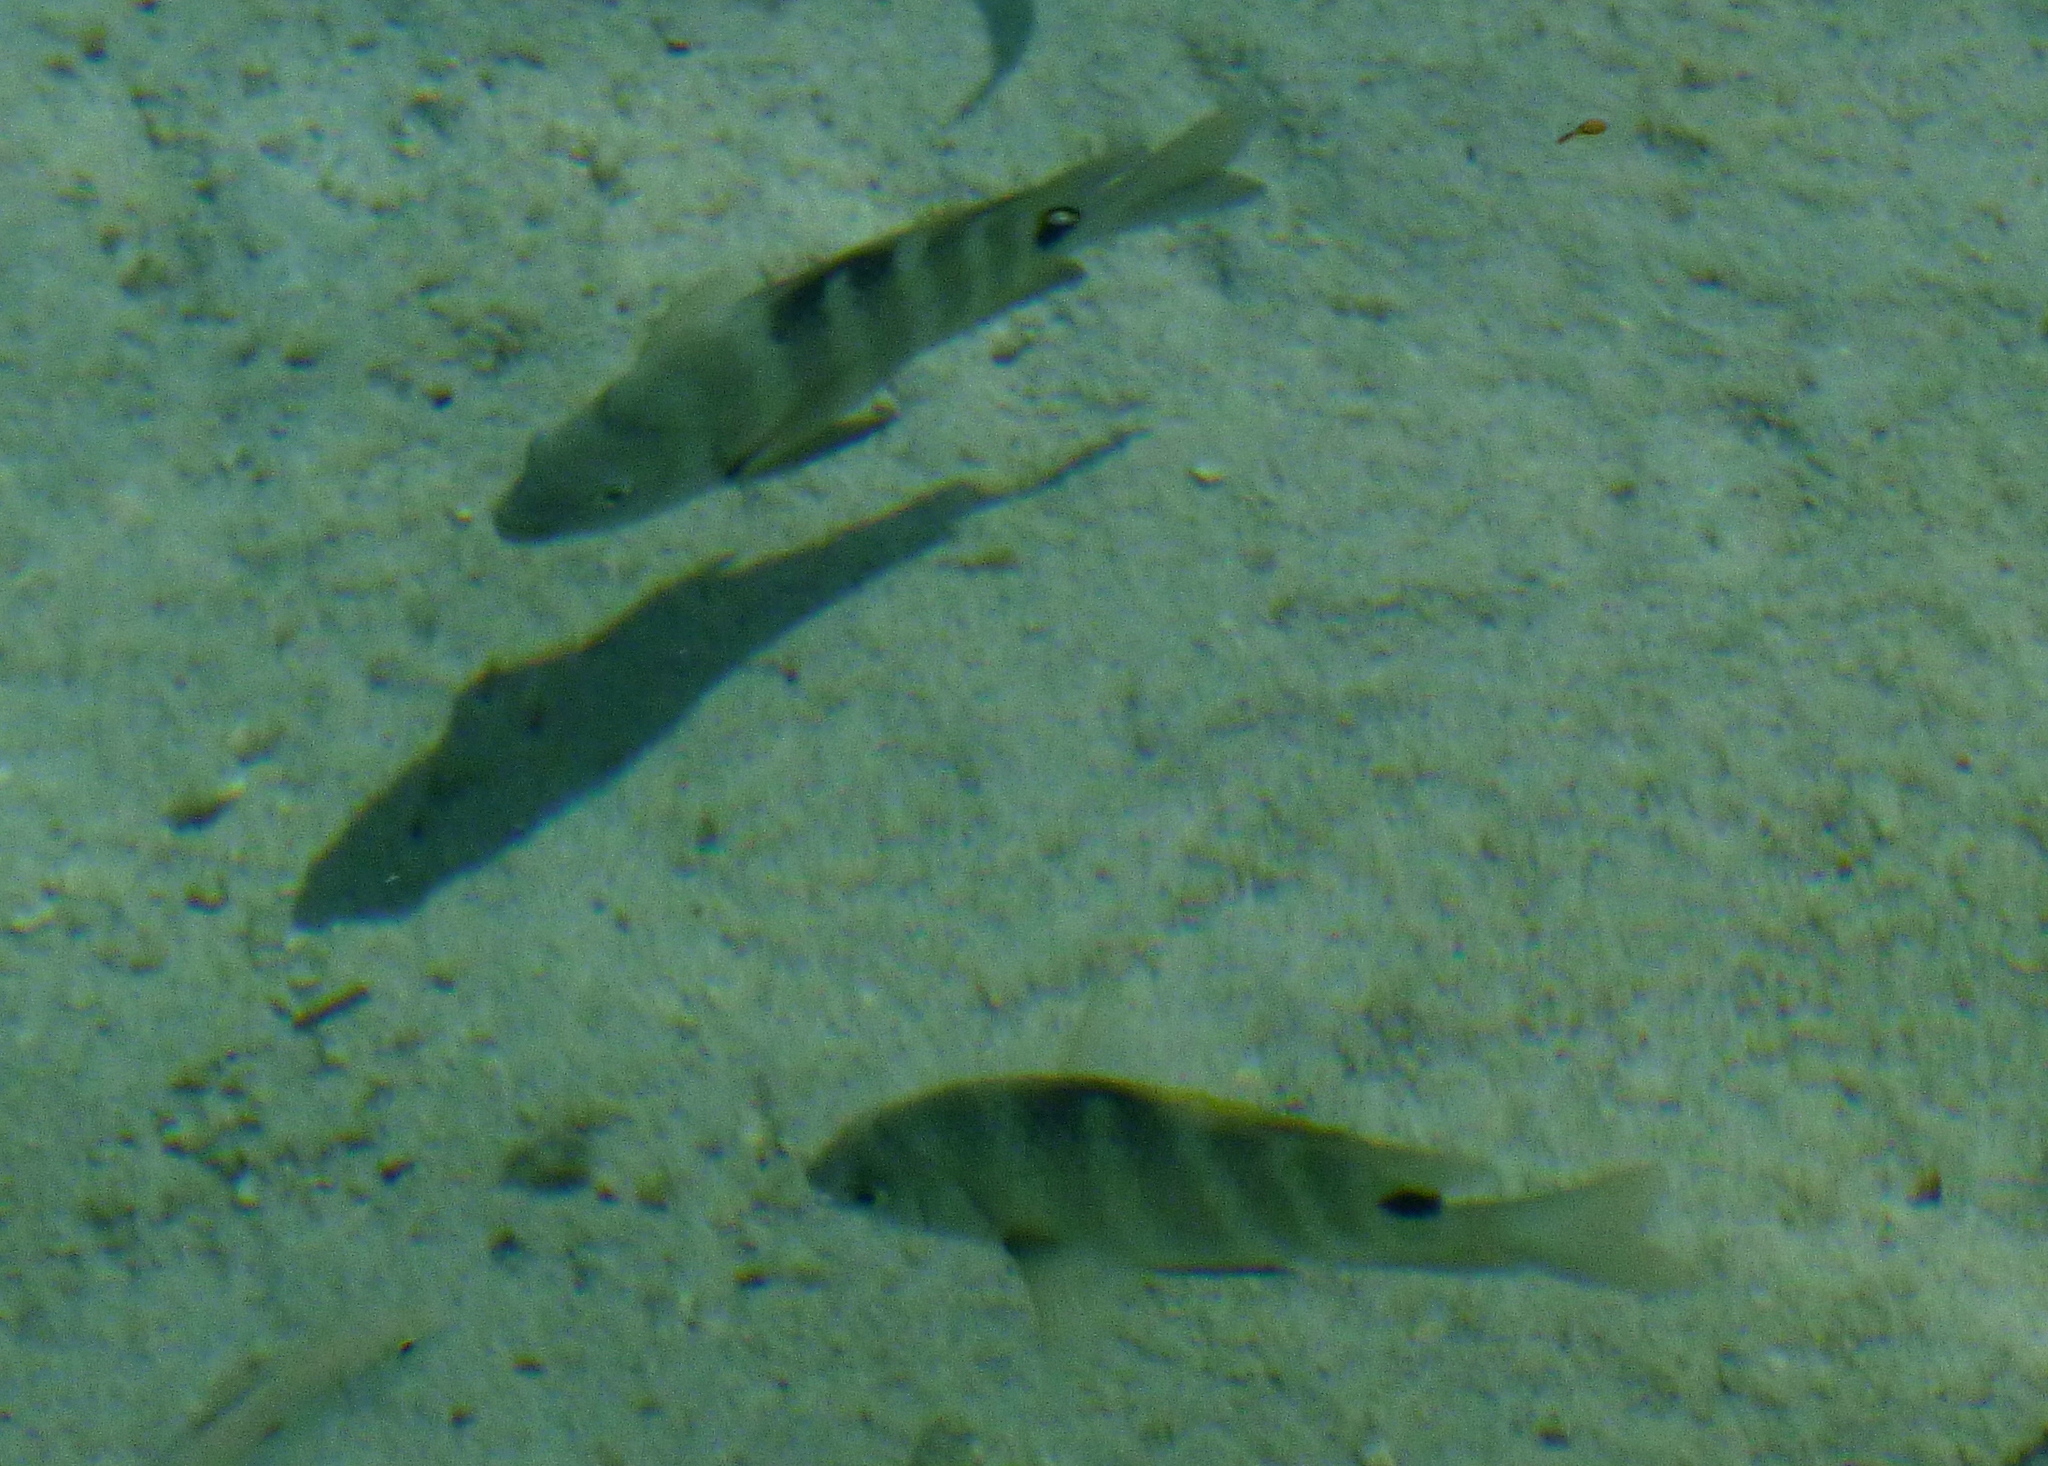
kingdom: Animalia
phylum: Chordata
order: Perciformes
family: Pomacentridae
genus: Abudefduf
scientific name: Abudefduf sordidus
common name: Blackspot sergeant
